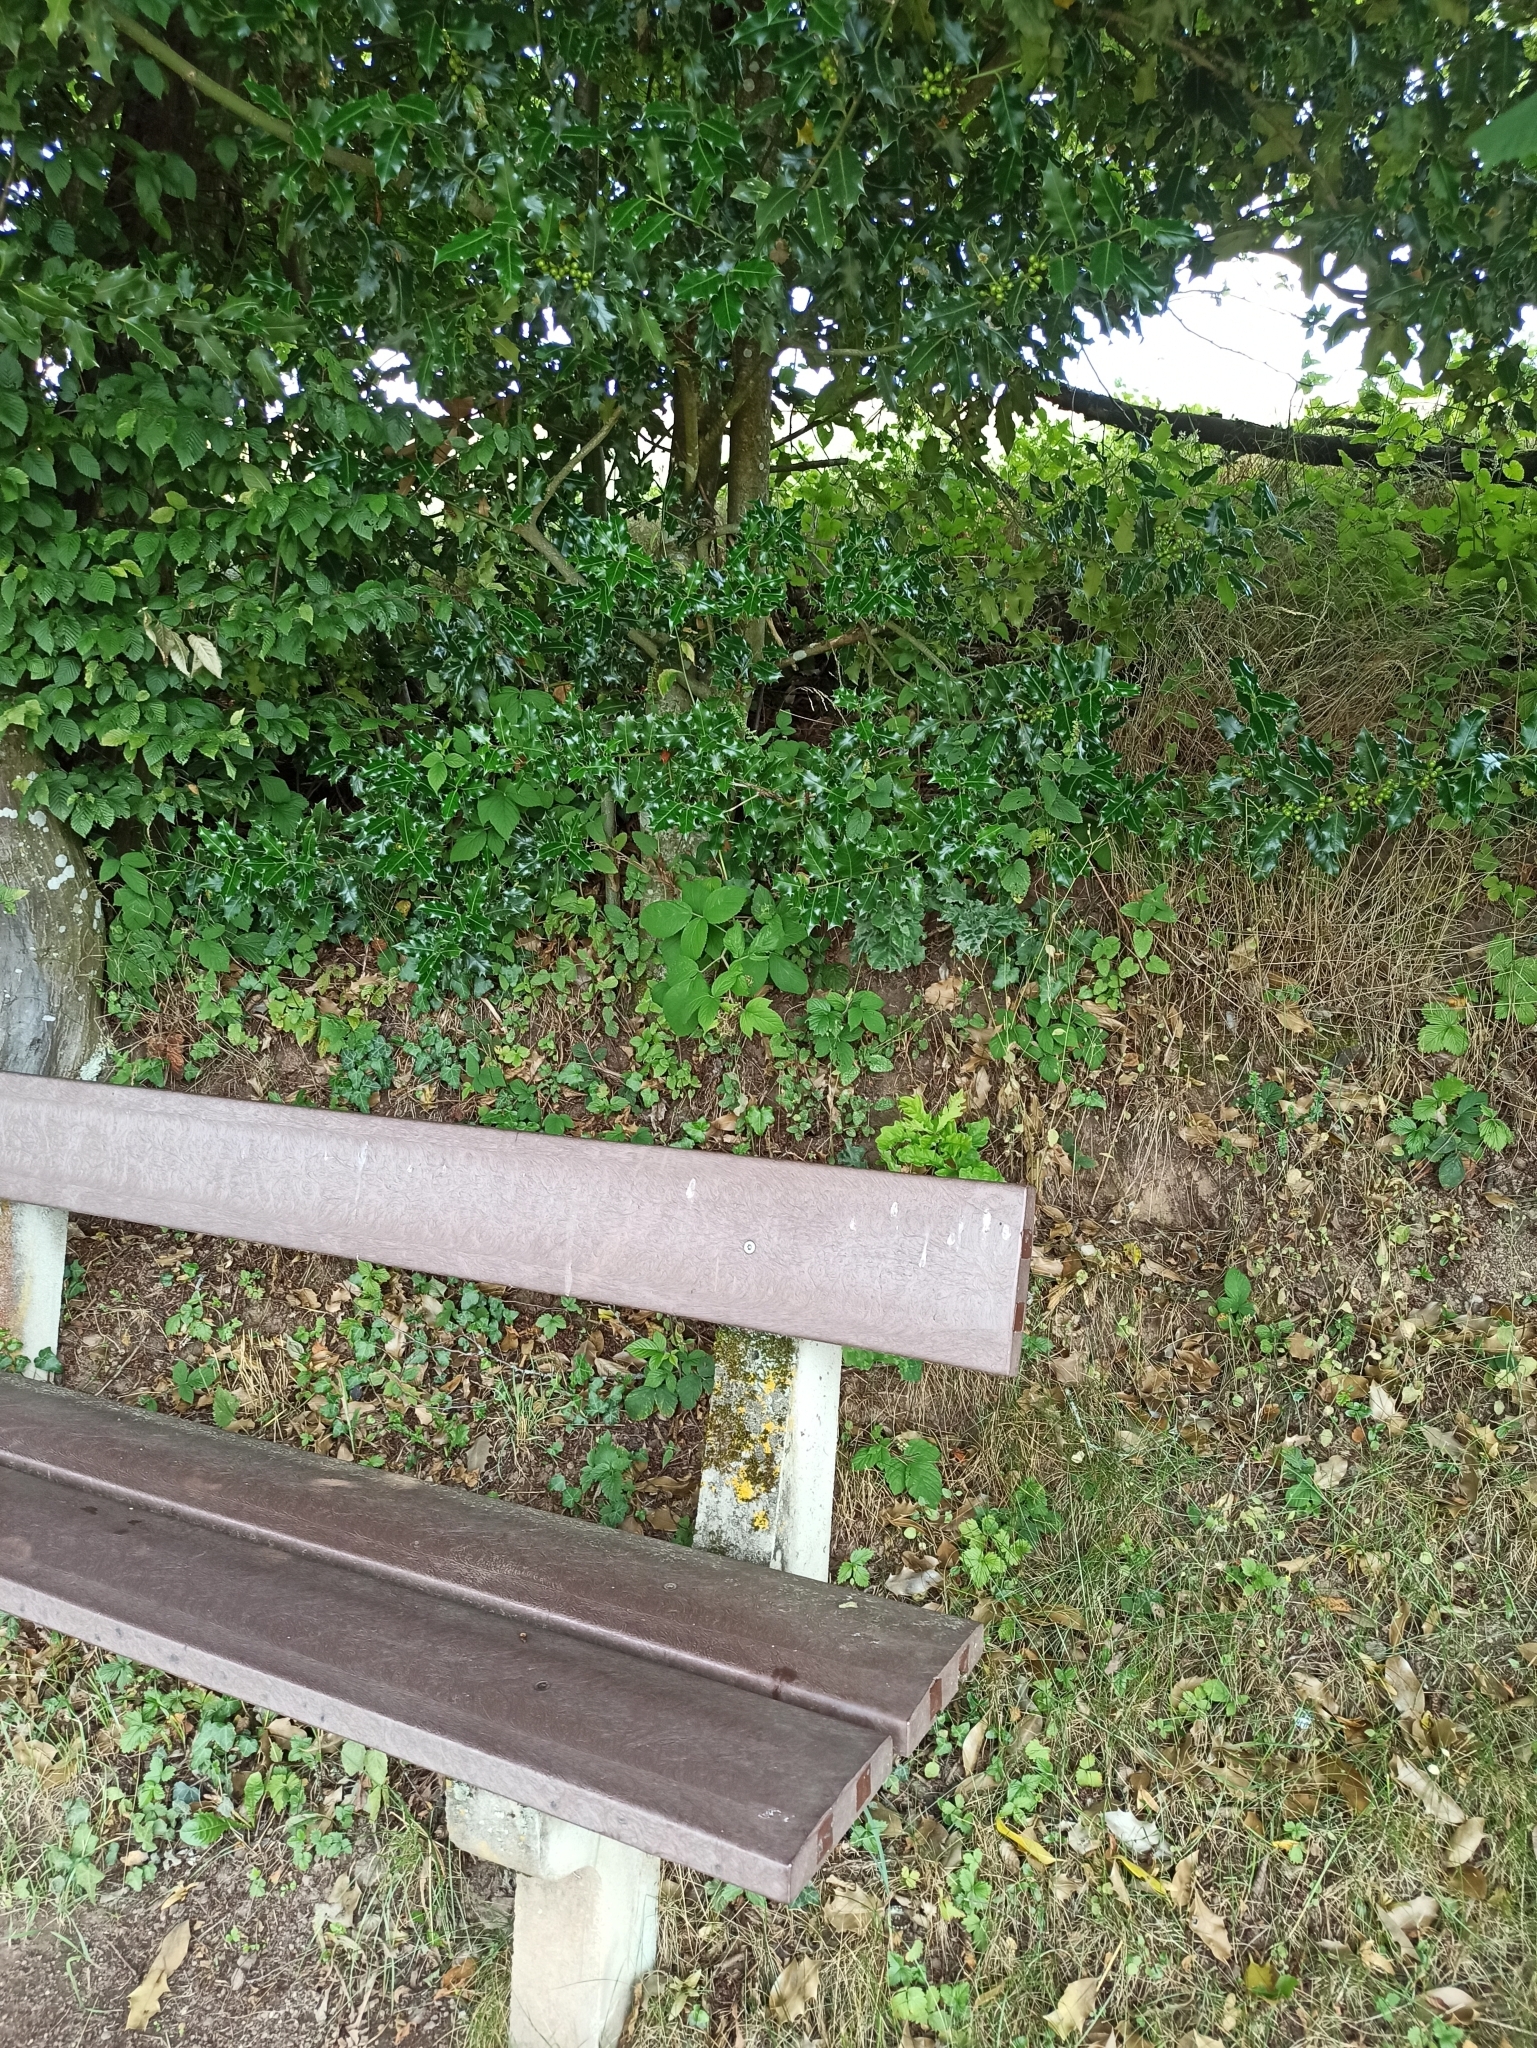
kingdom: Plantae
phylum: Tracheophyta
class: Magnoliopsida
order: Aquifoliales
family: Aquifoliaceae
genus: Ilex
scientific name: Ilex aquifolium
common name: English holly
